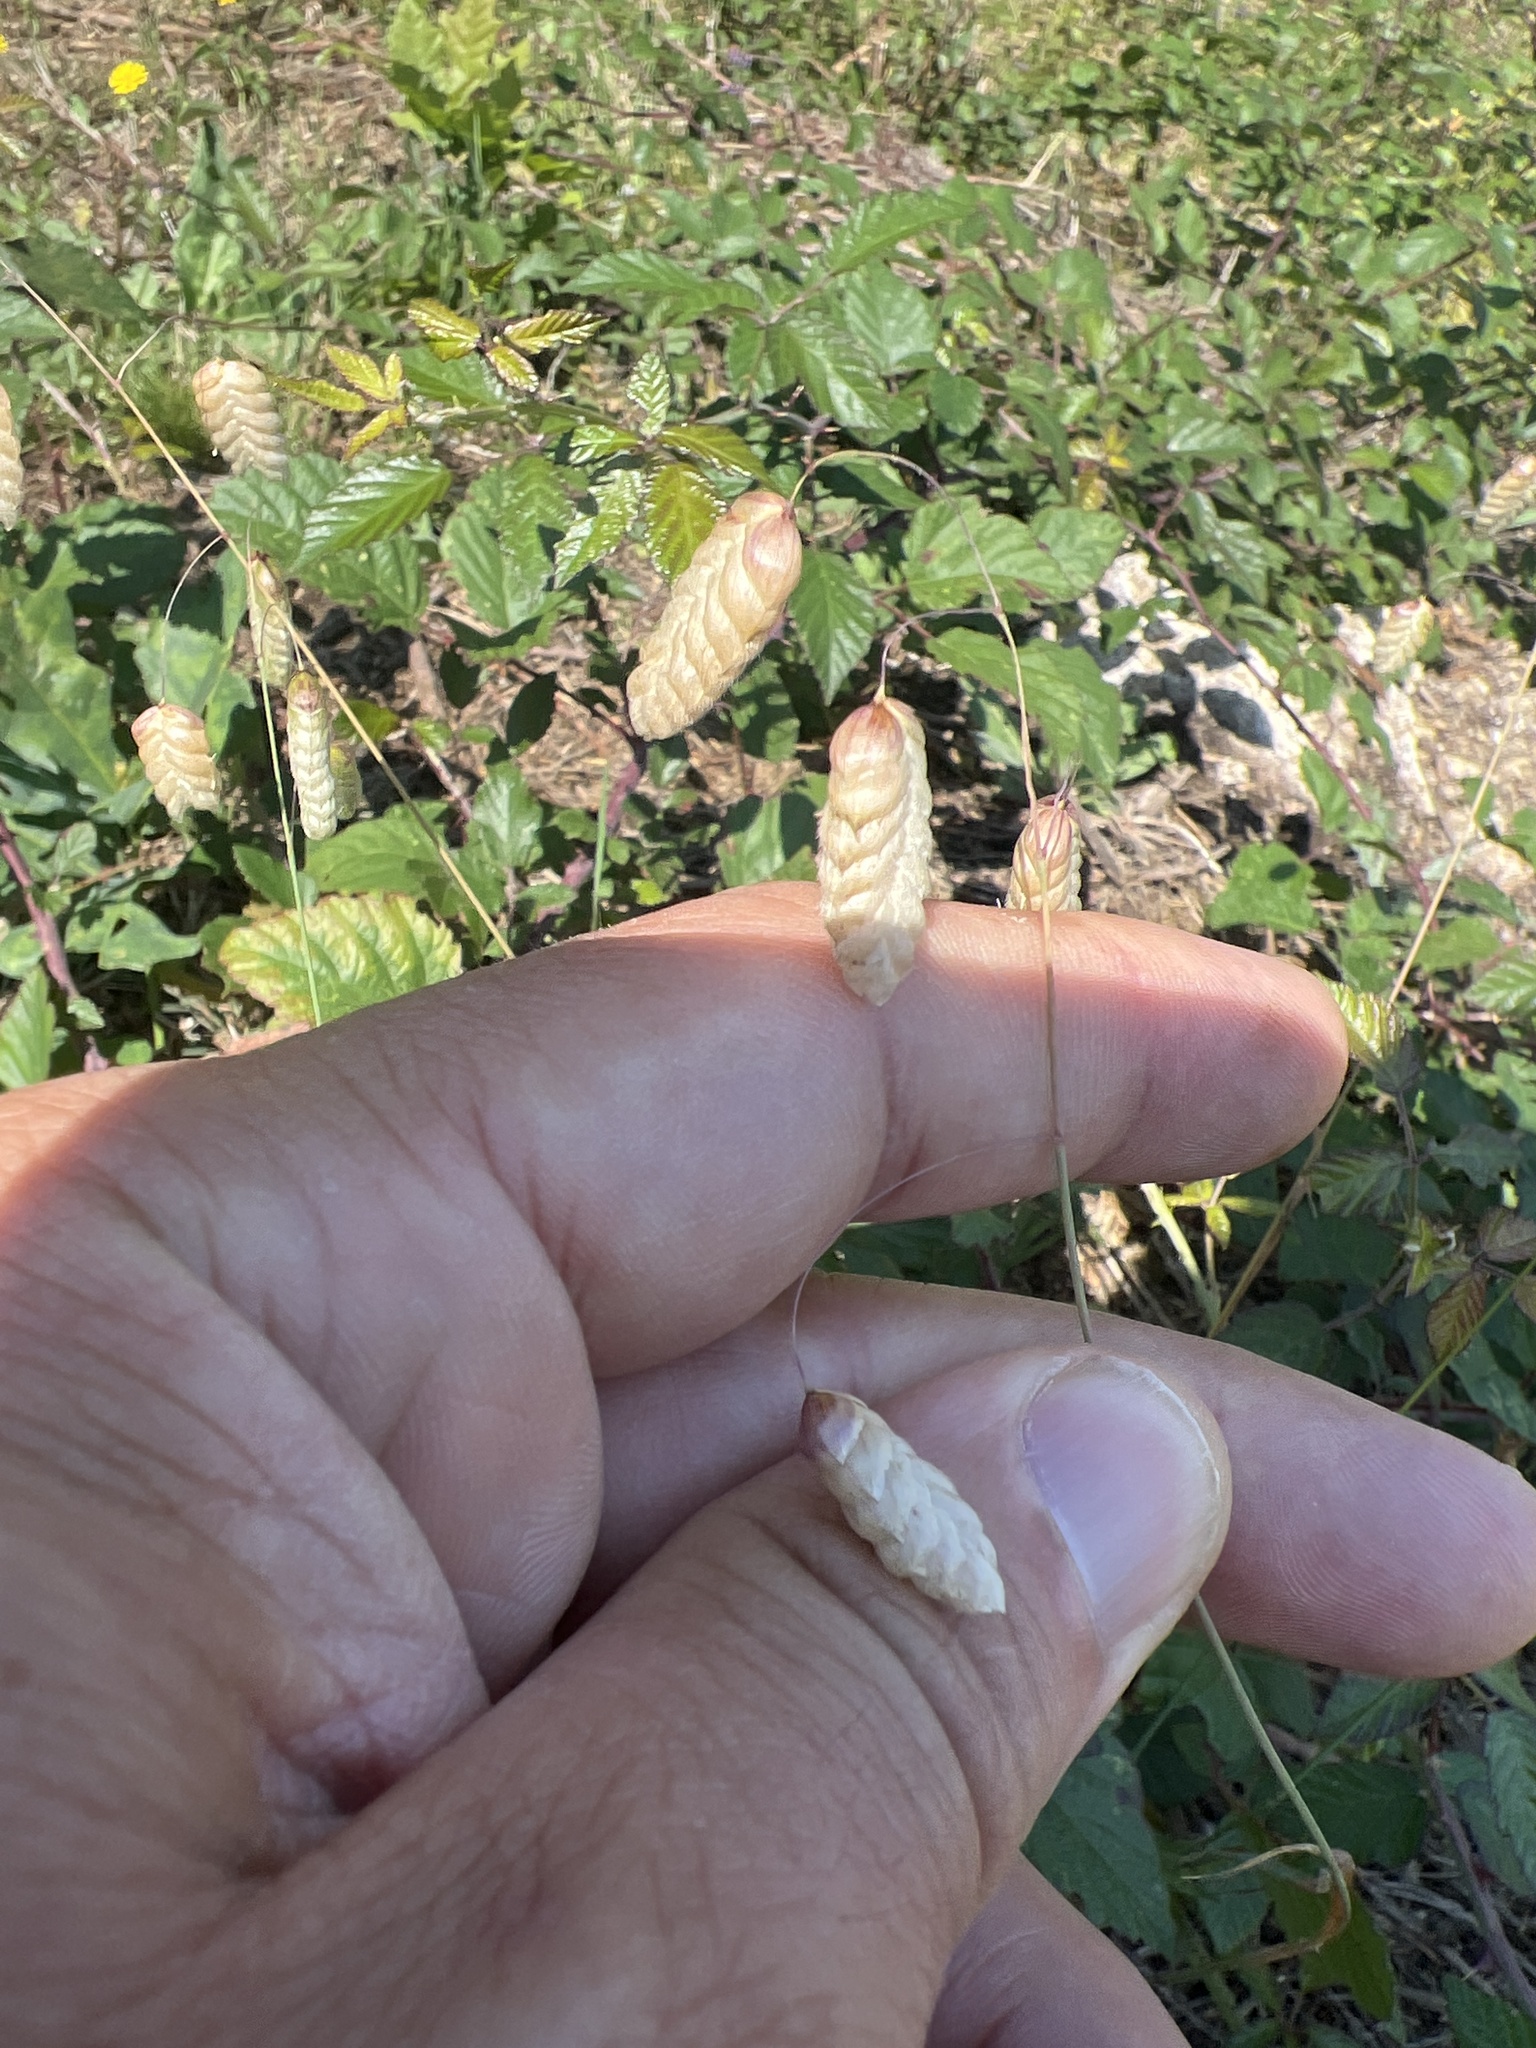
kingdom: Plantae
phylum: Tracheophyta
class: Liliopsida
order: Poales
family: Poaceae
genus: Briza
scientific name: Briza maxima
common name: Big quakinggrass
